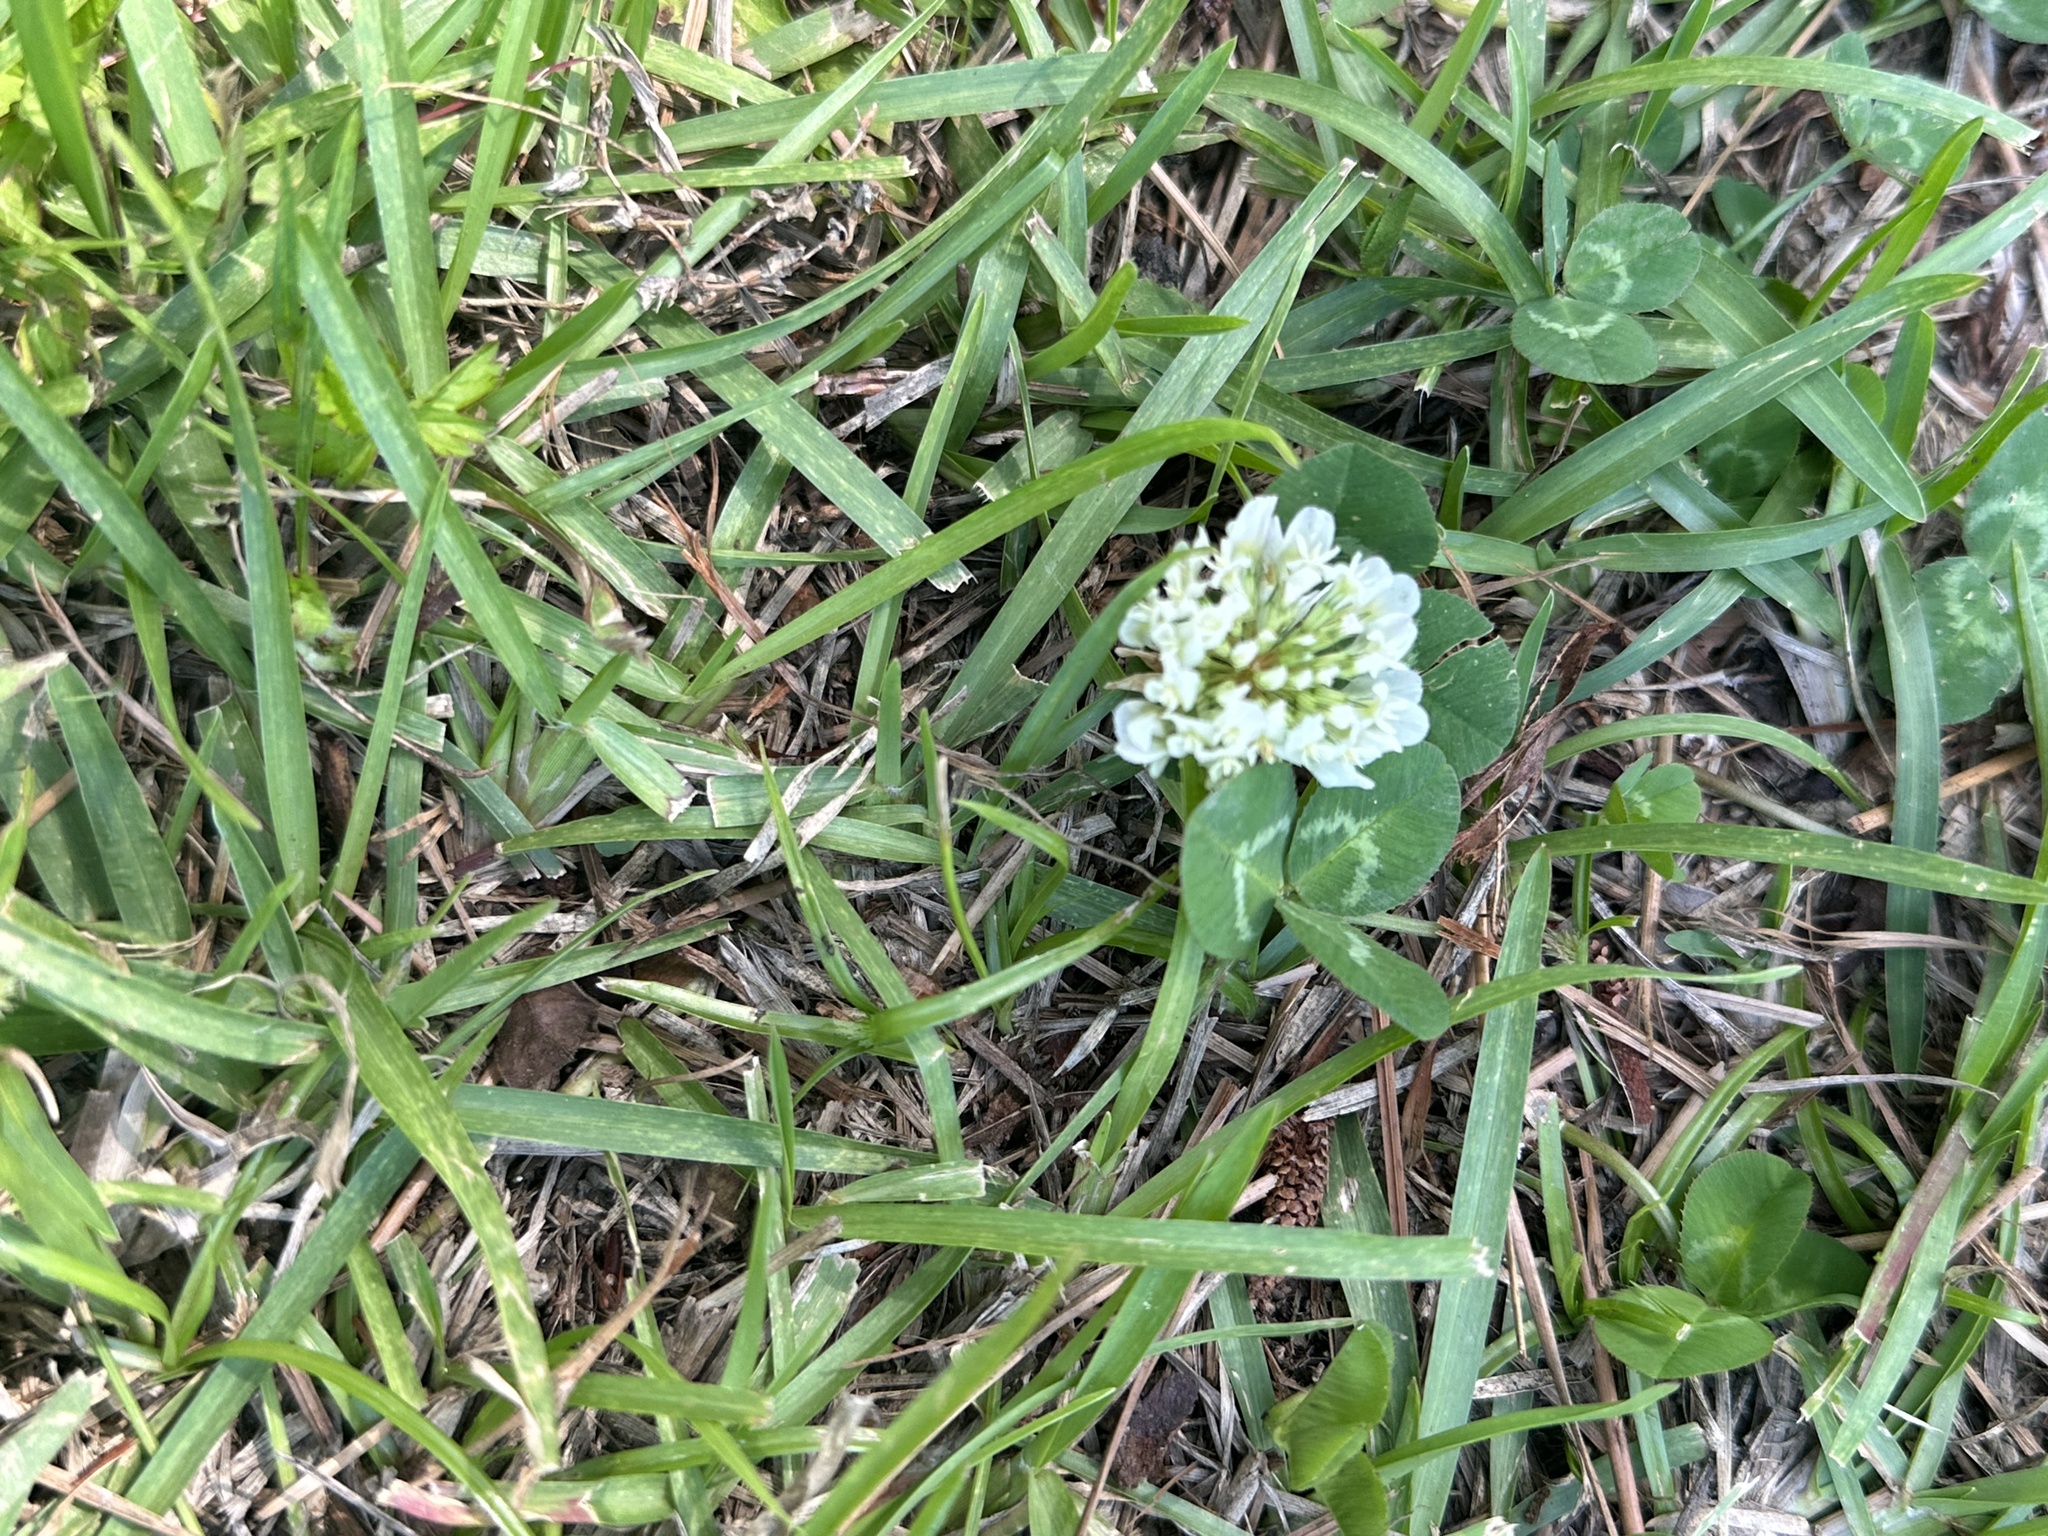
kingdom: Plantae
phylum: Tracheophyta
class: Magnoliopsida
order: Fabales
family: Fabaceae
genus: Trifolium
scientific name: Trifolium repens
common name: White clover
